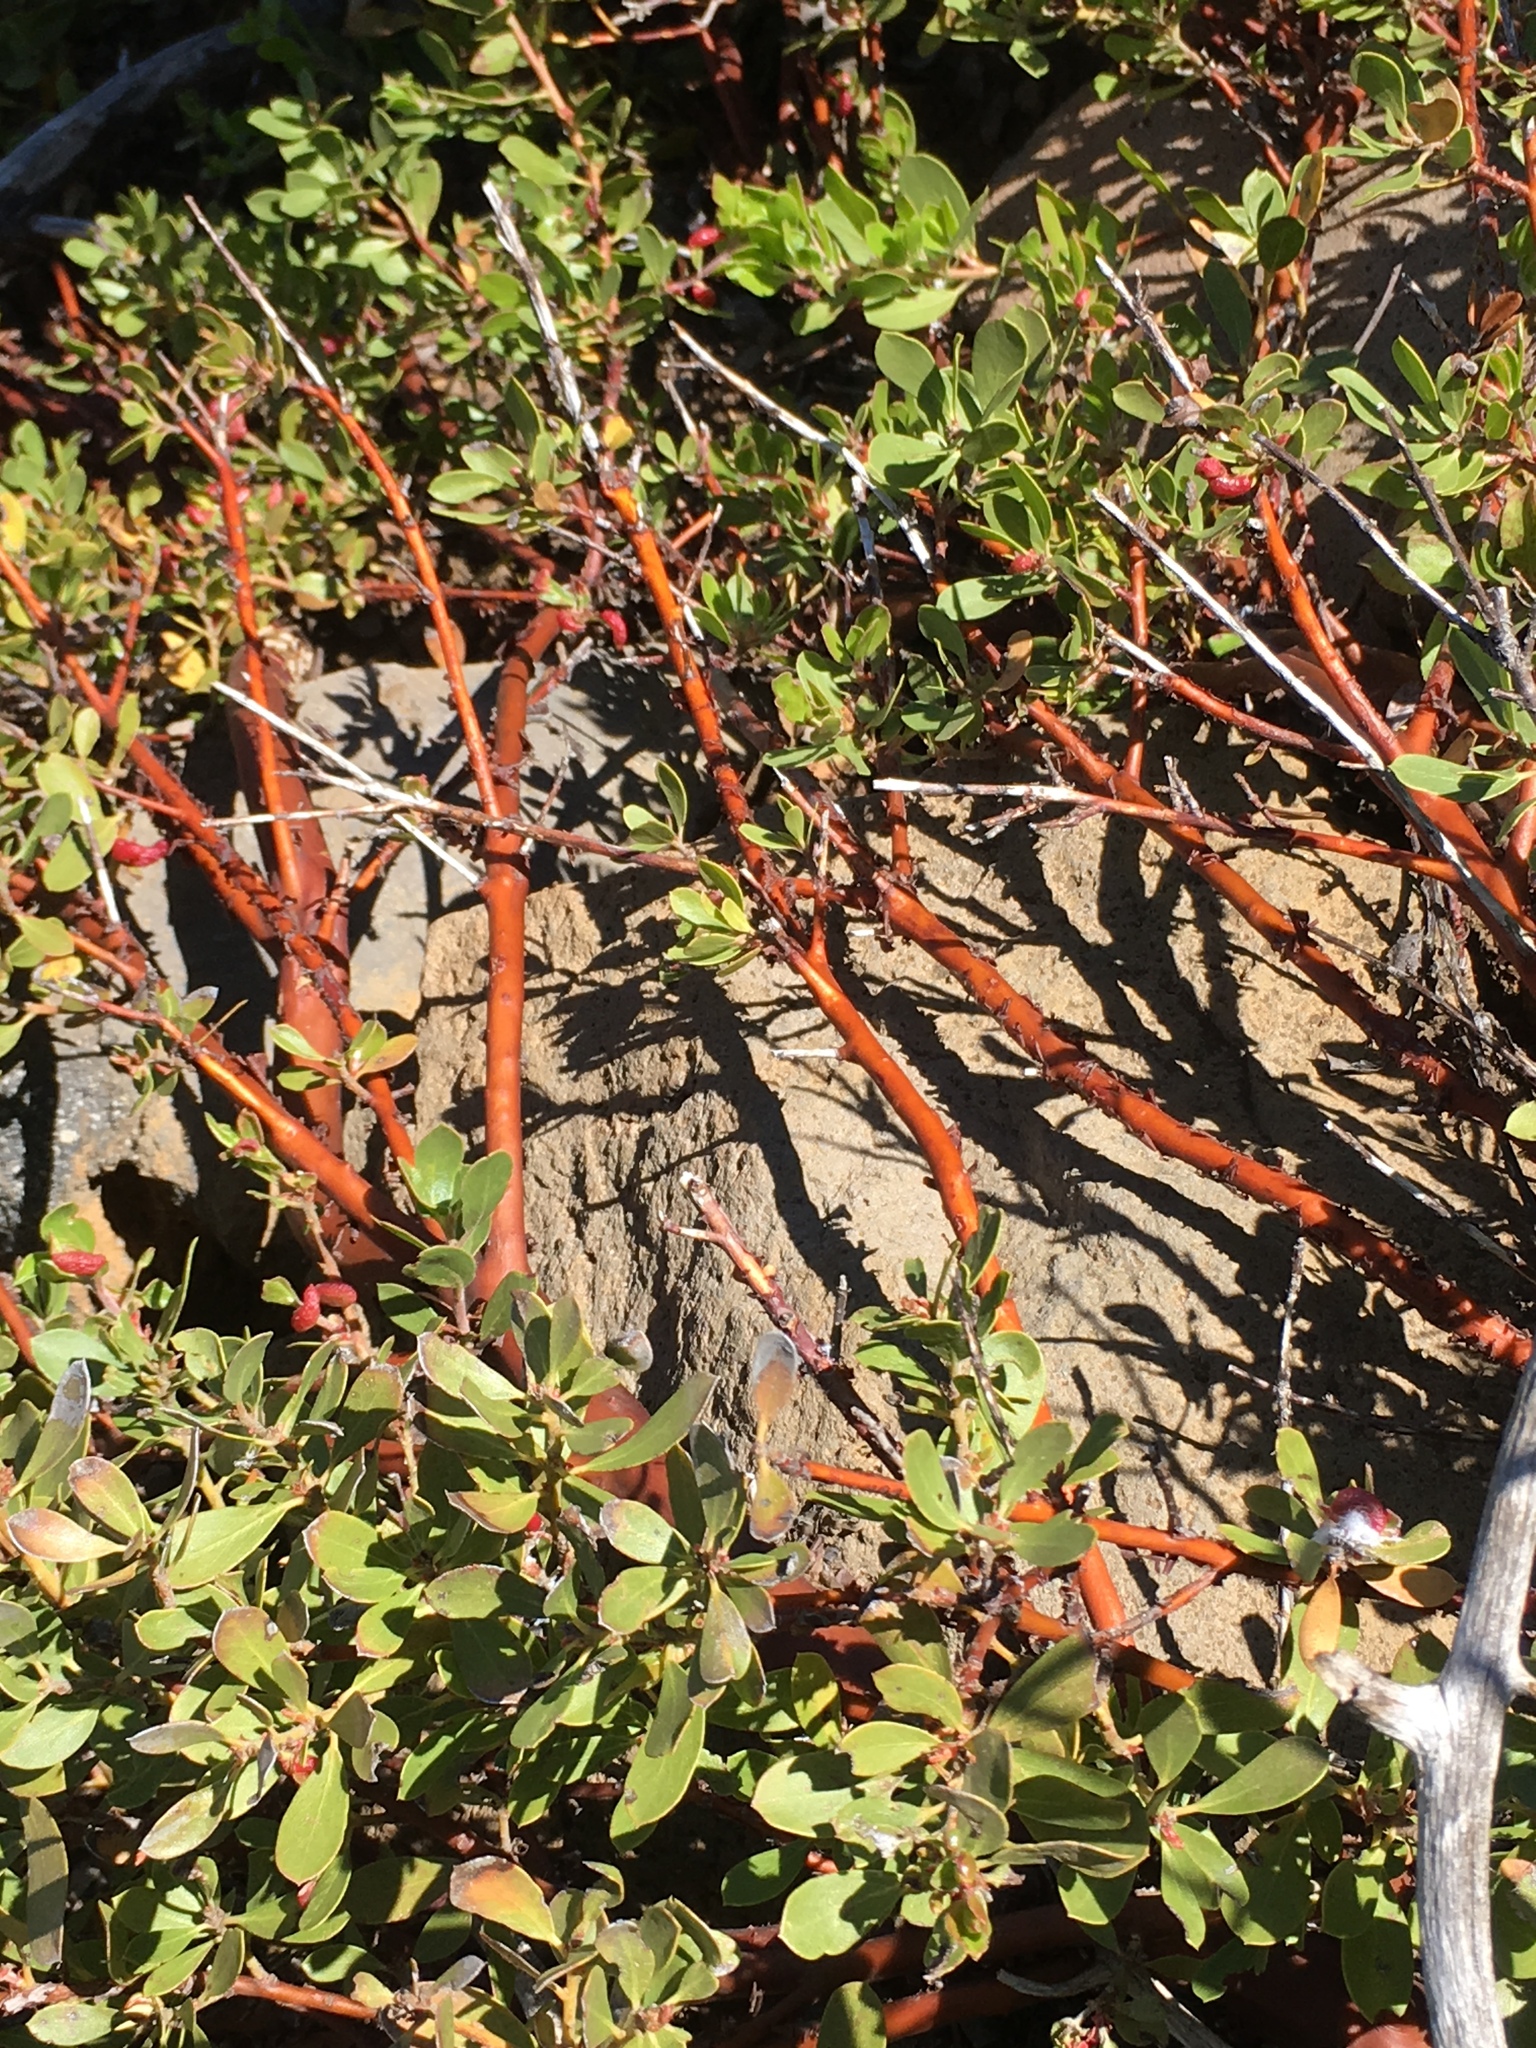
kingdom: Plantae
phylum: Tracheophyta
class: Magnoliopsida
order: Ericales
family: Ericaceae
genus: Arctostaphylos
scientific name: Arctostaphylos nevadensis
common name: Pinemat manzanita
